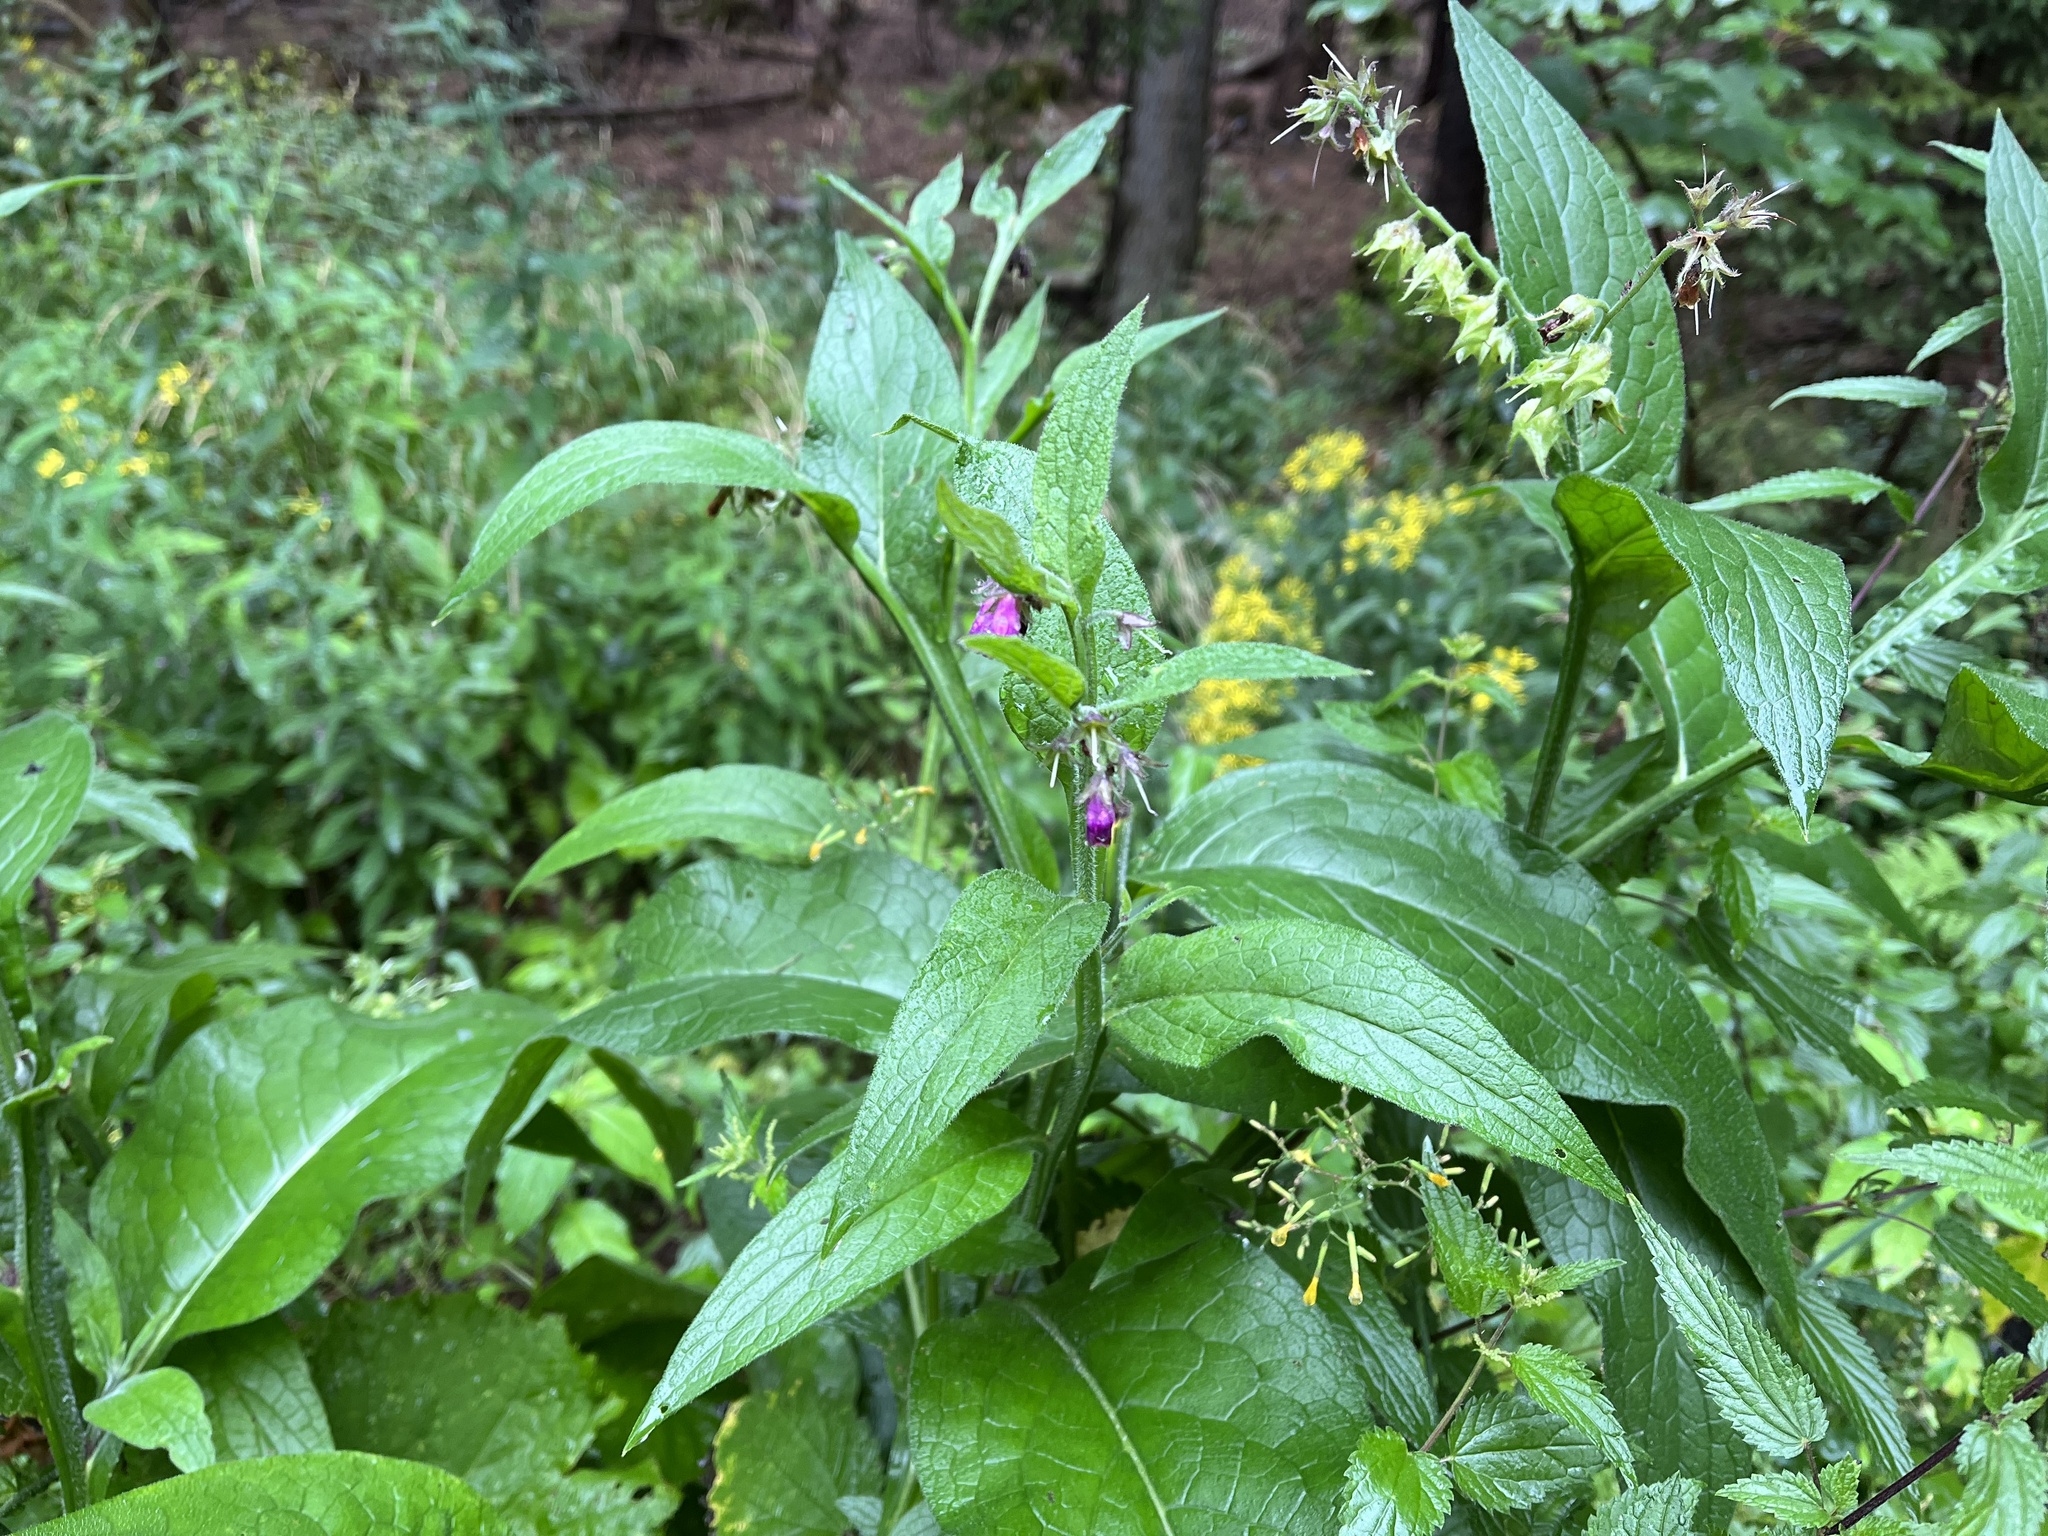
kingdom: Plantae
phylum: Tracheophyta
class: Magnoliopsida
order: Boraginales
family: Boraginaceae
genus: Symphytum
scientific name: Symphytum officinale
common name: Common comfrey
